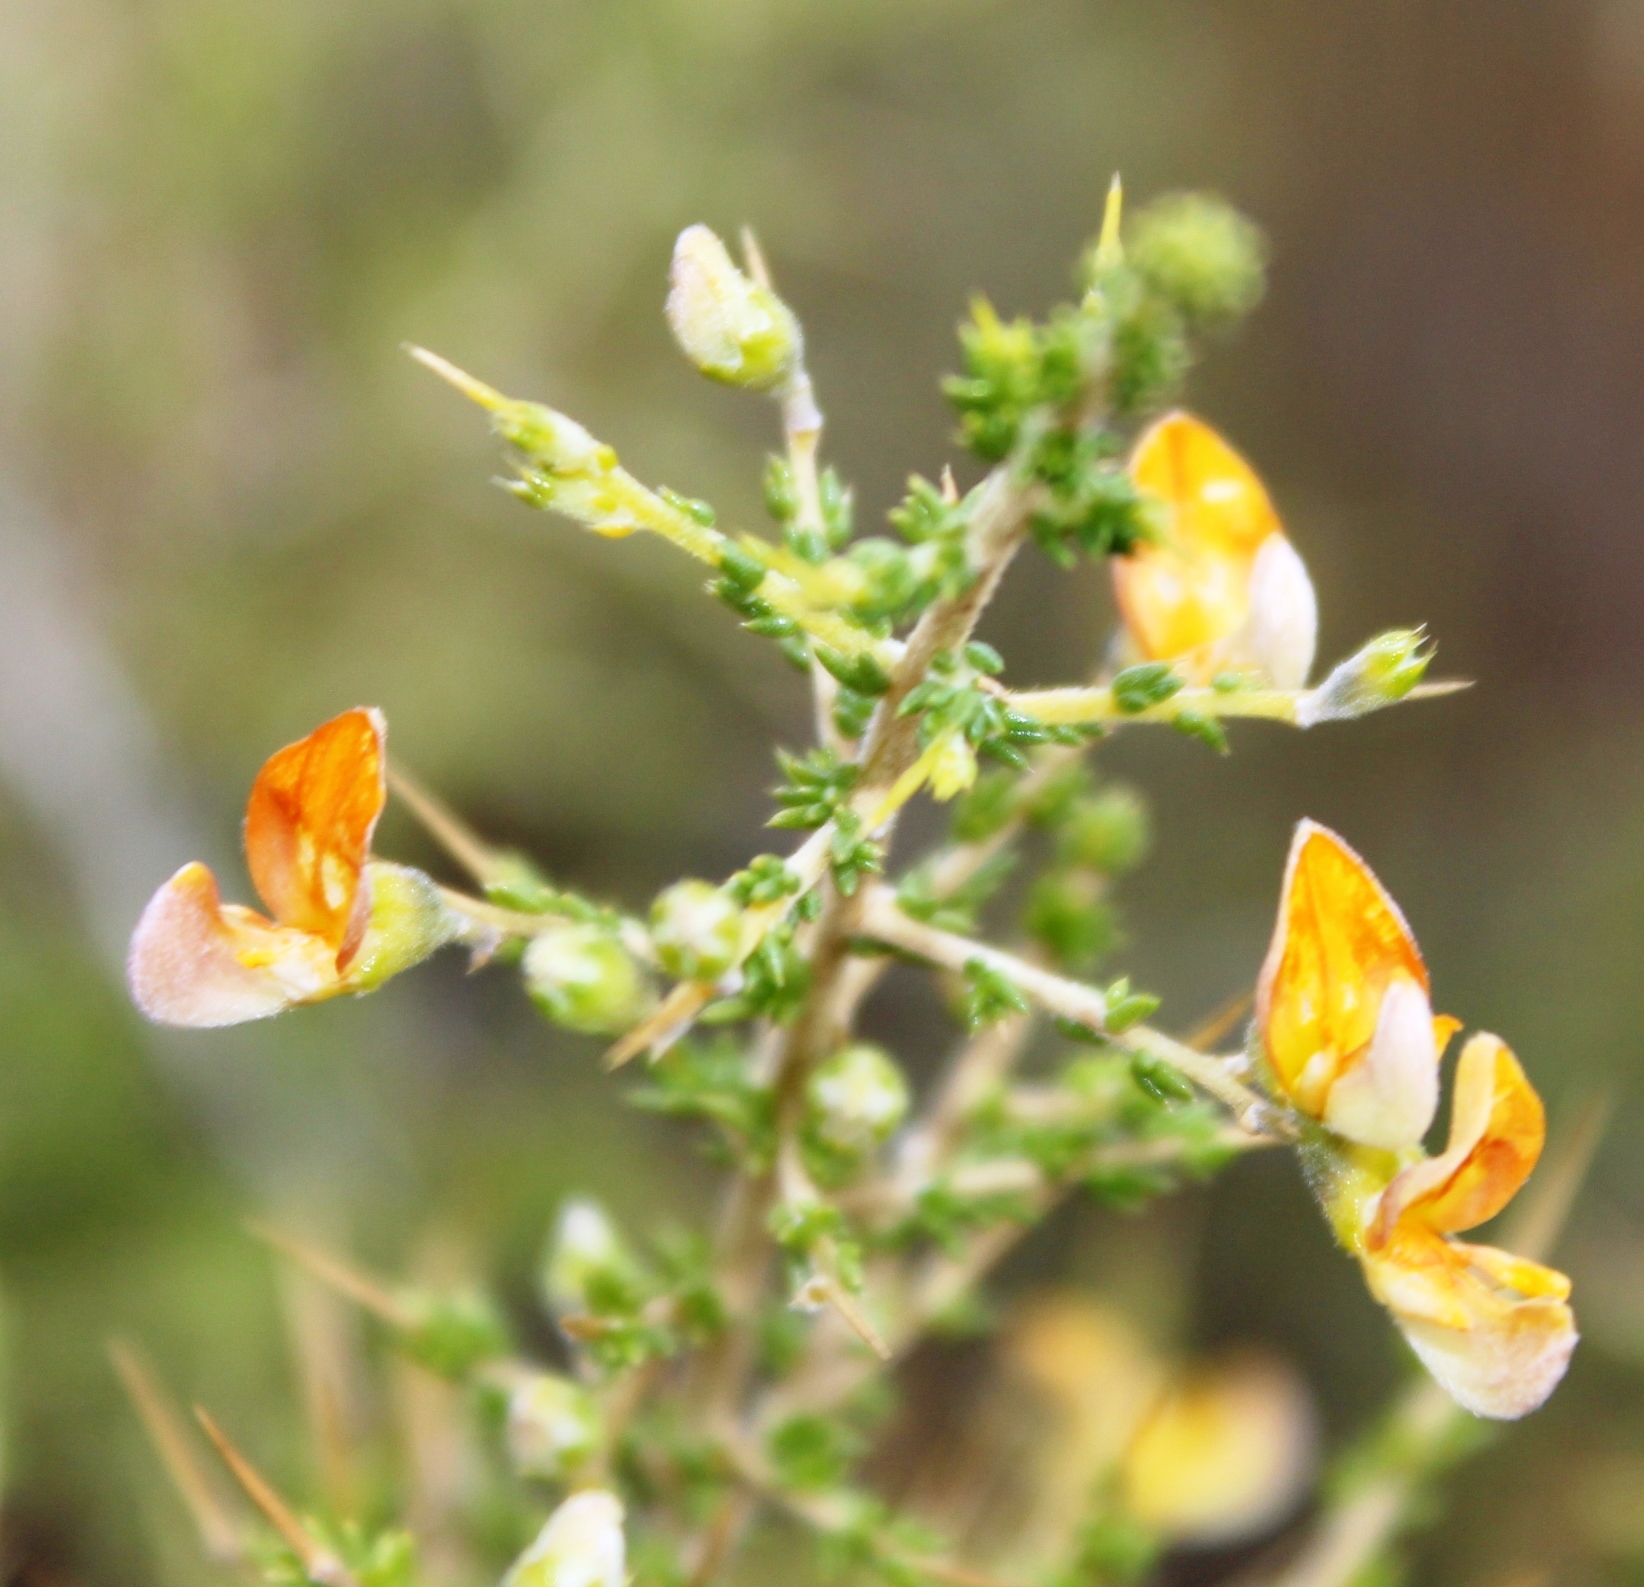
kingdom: Plantae
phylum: Tracheophyta
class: Magnoliopsida
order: Fabales
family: Fabaceae
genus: Aspalathus
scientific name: Aspalathus acuminata
